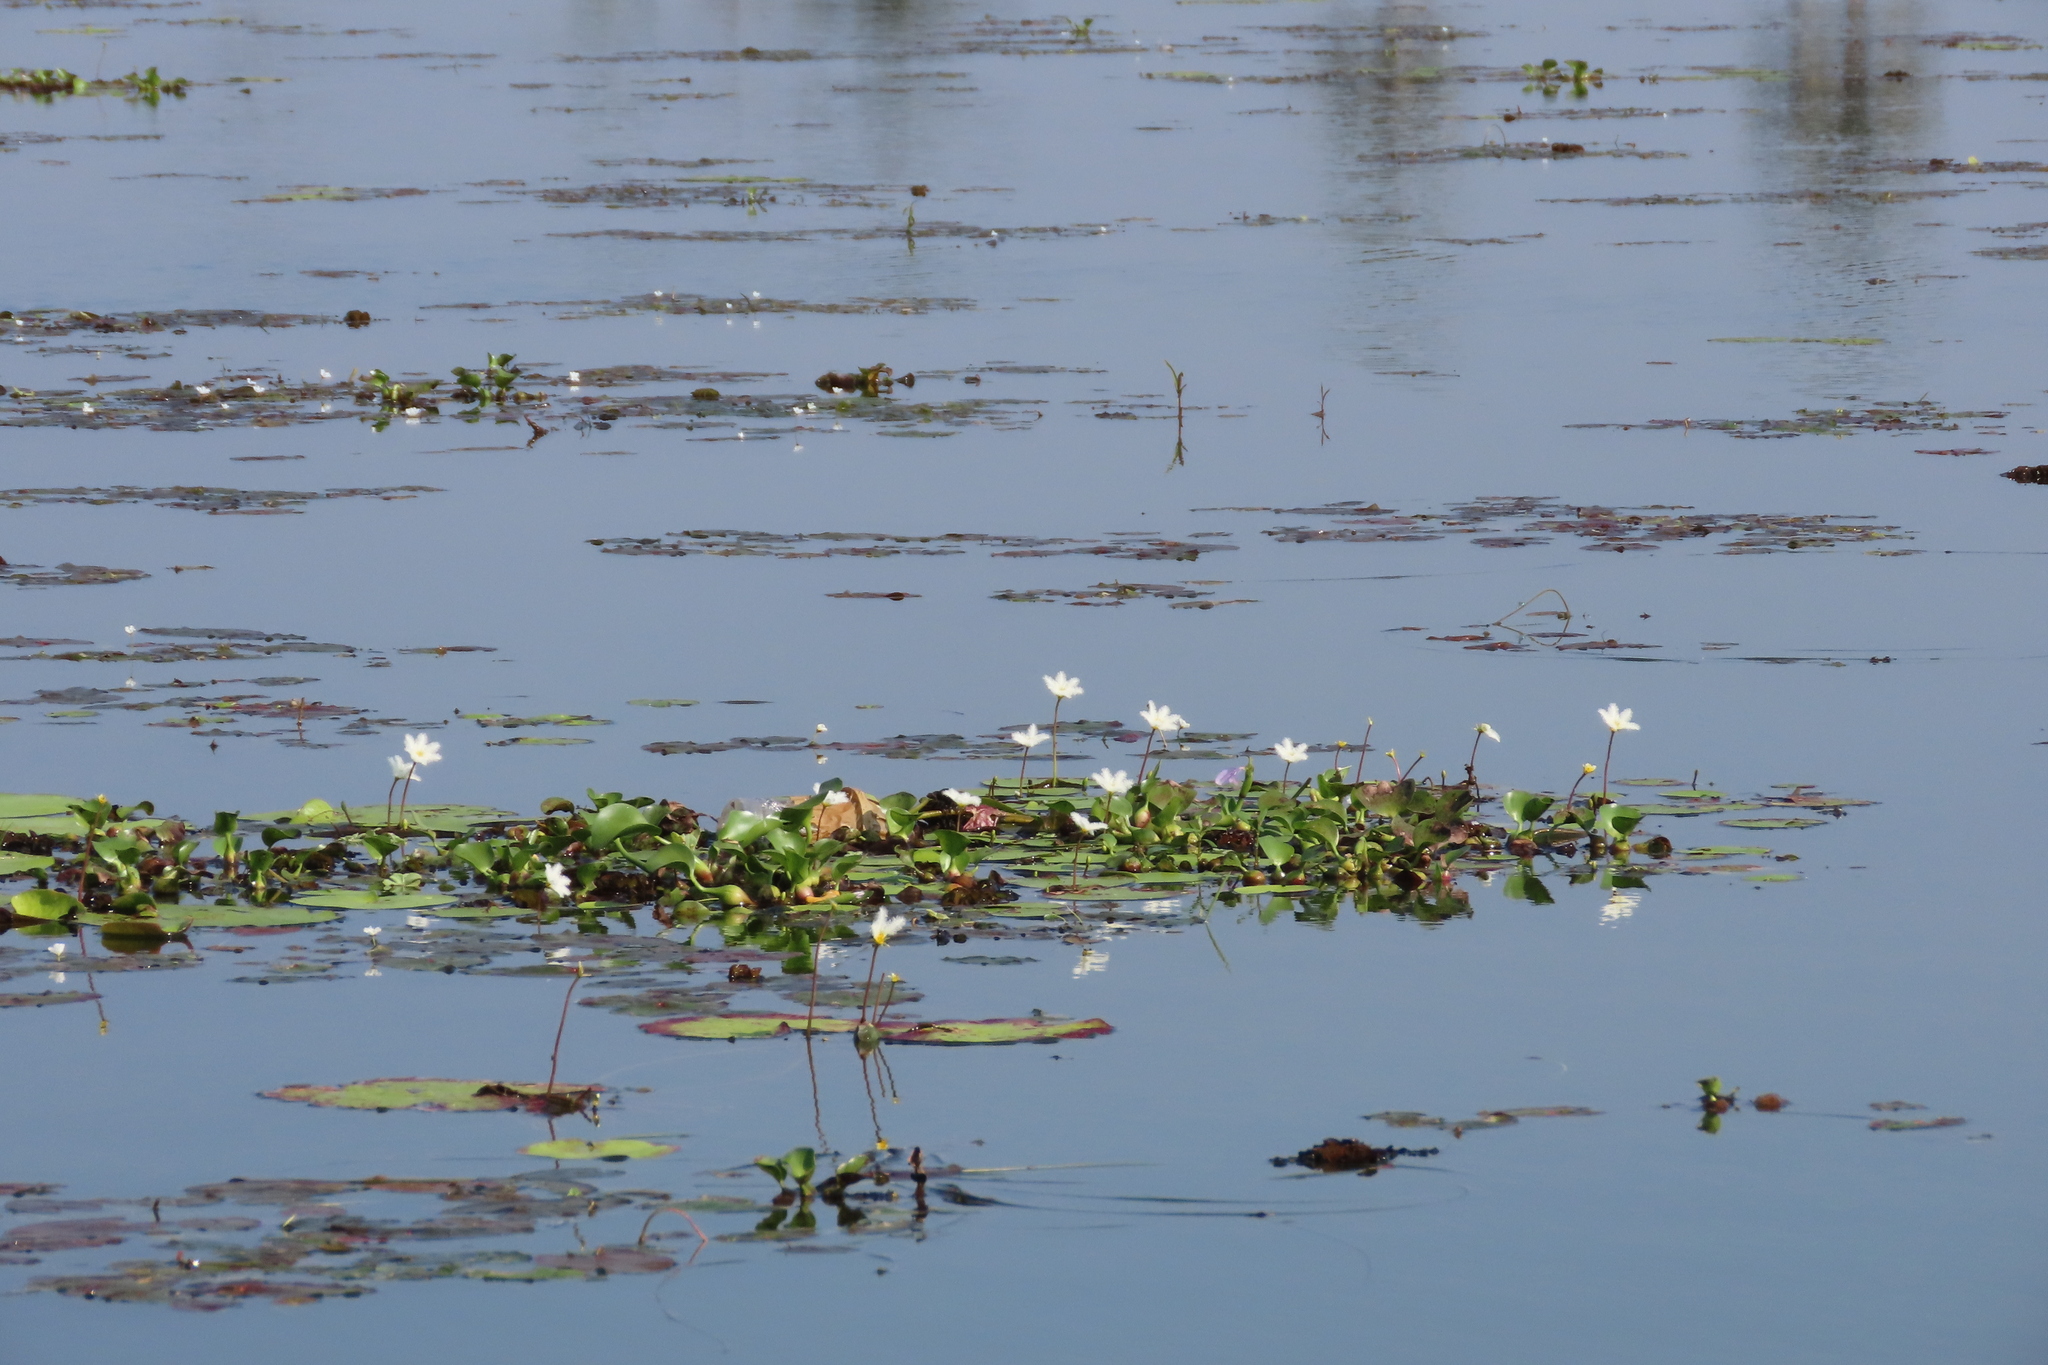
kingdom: Plantae
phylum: Tracheophyta
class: Magnoliopsida
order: Asterales
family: Menyanthaceae
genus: Nymphoides
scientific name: Nymphoides indica
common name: Water-snowflake
